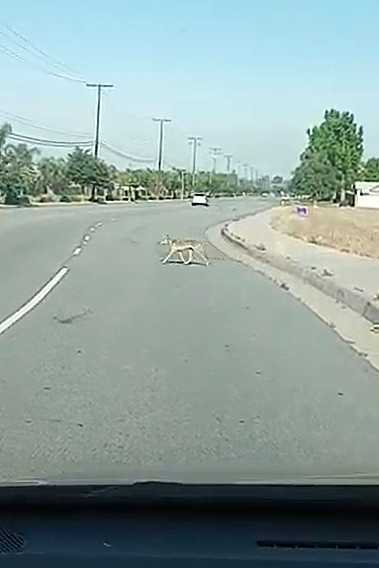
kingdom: Animalia
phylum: Chordata
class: Mammalia
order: Carnivora
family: Canidae
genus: Canis
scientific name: Canis latrans
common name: Coyote
